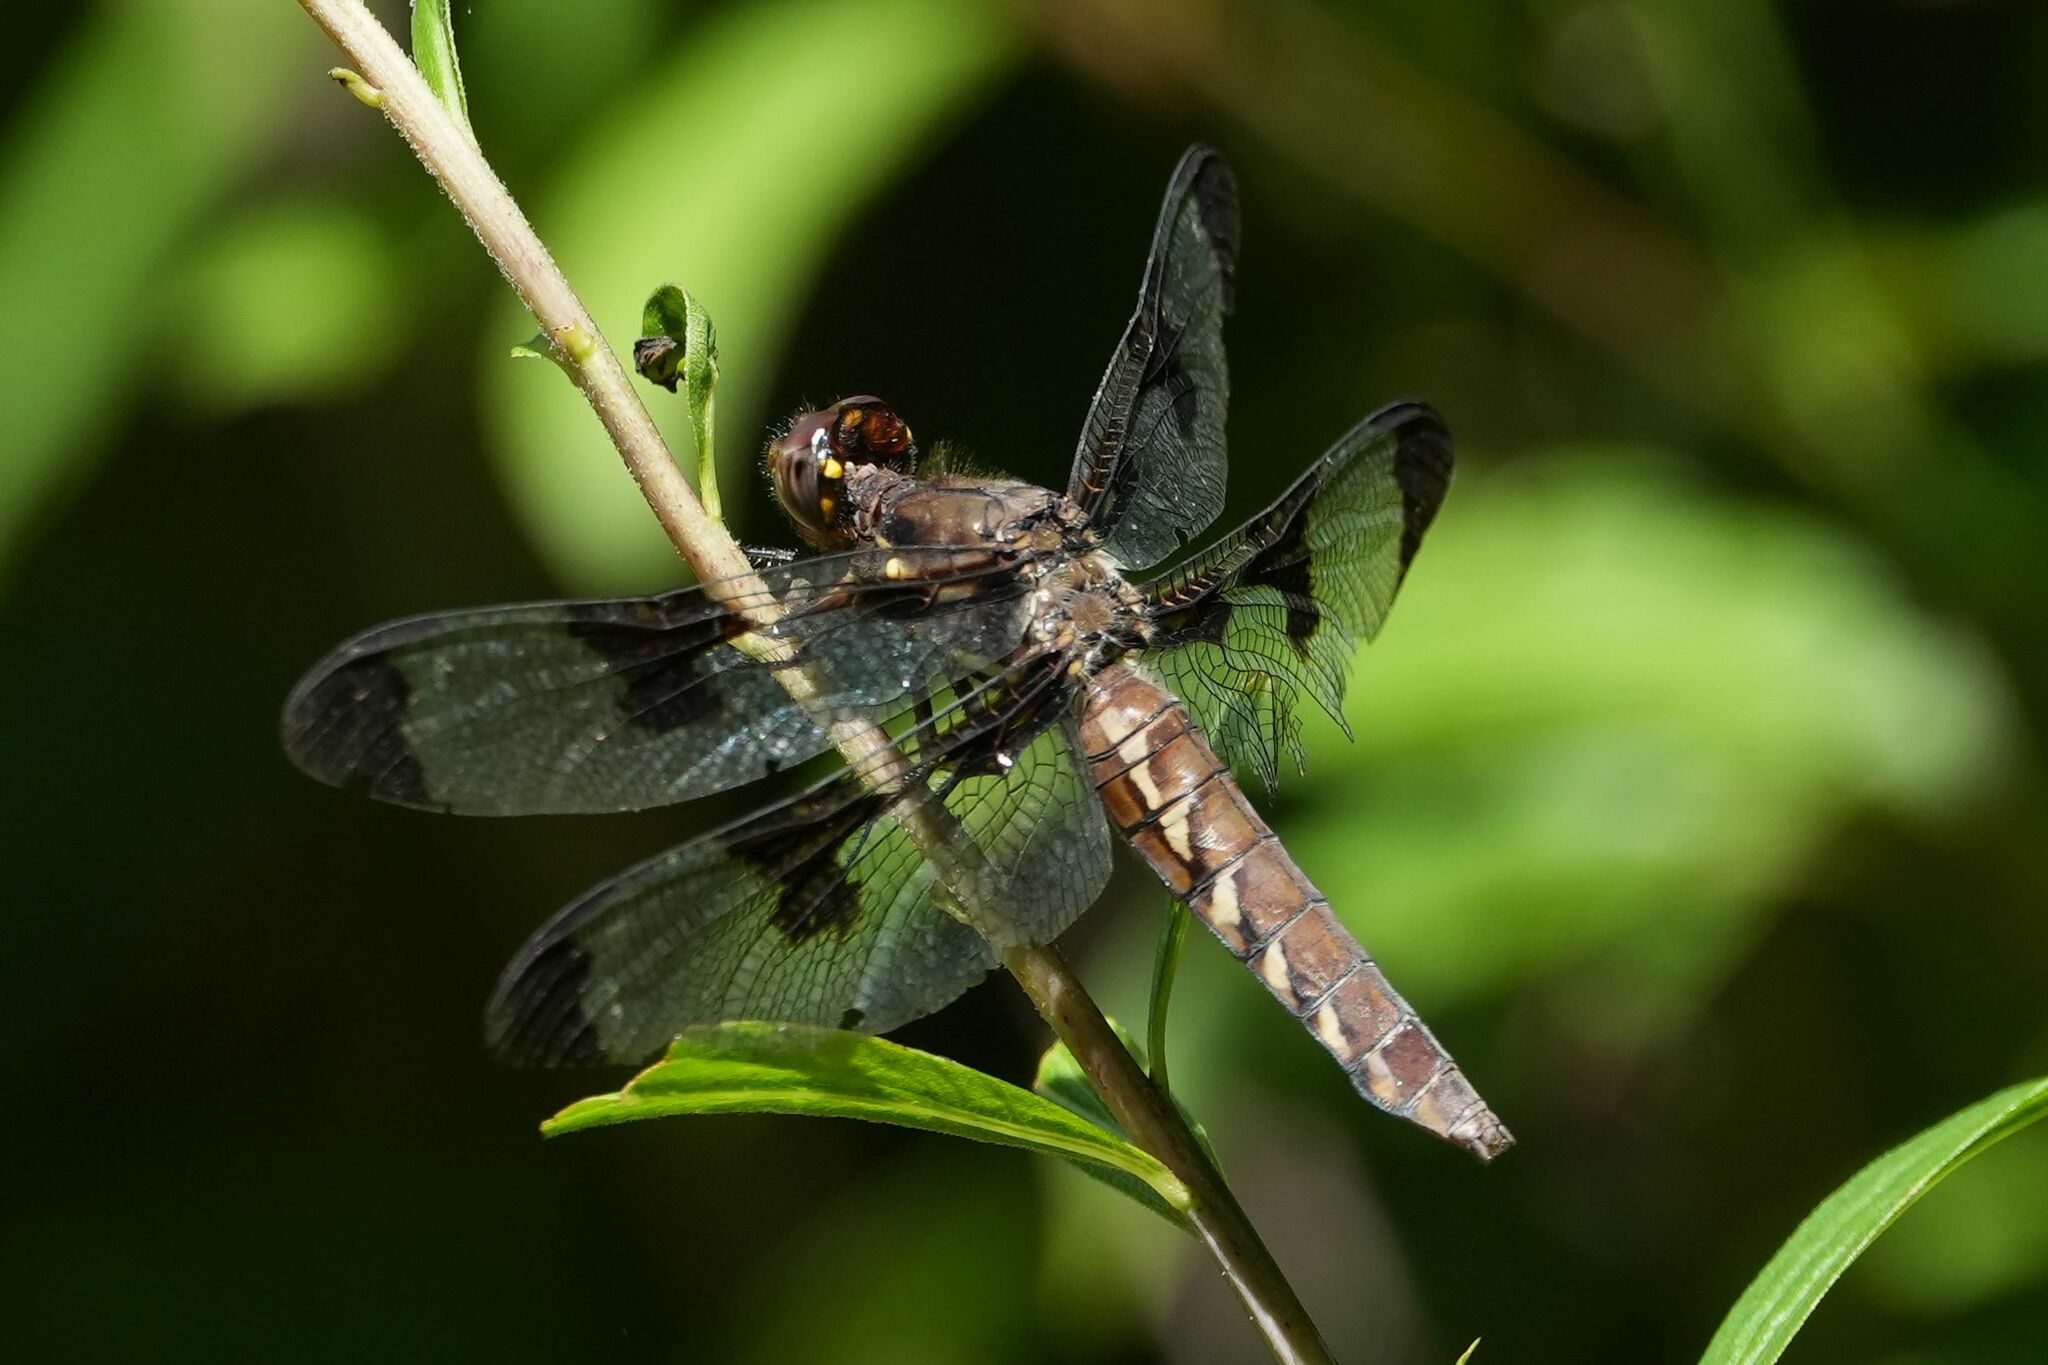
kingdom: Animalia
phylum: Arthropoda
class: Insecta
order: Odonata
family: Libellulidae
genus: Plathemis
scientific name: Plathemis lydia
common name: Common whitetail
